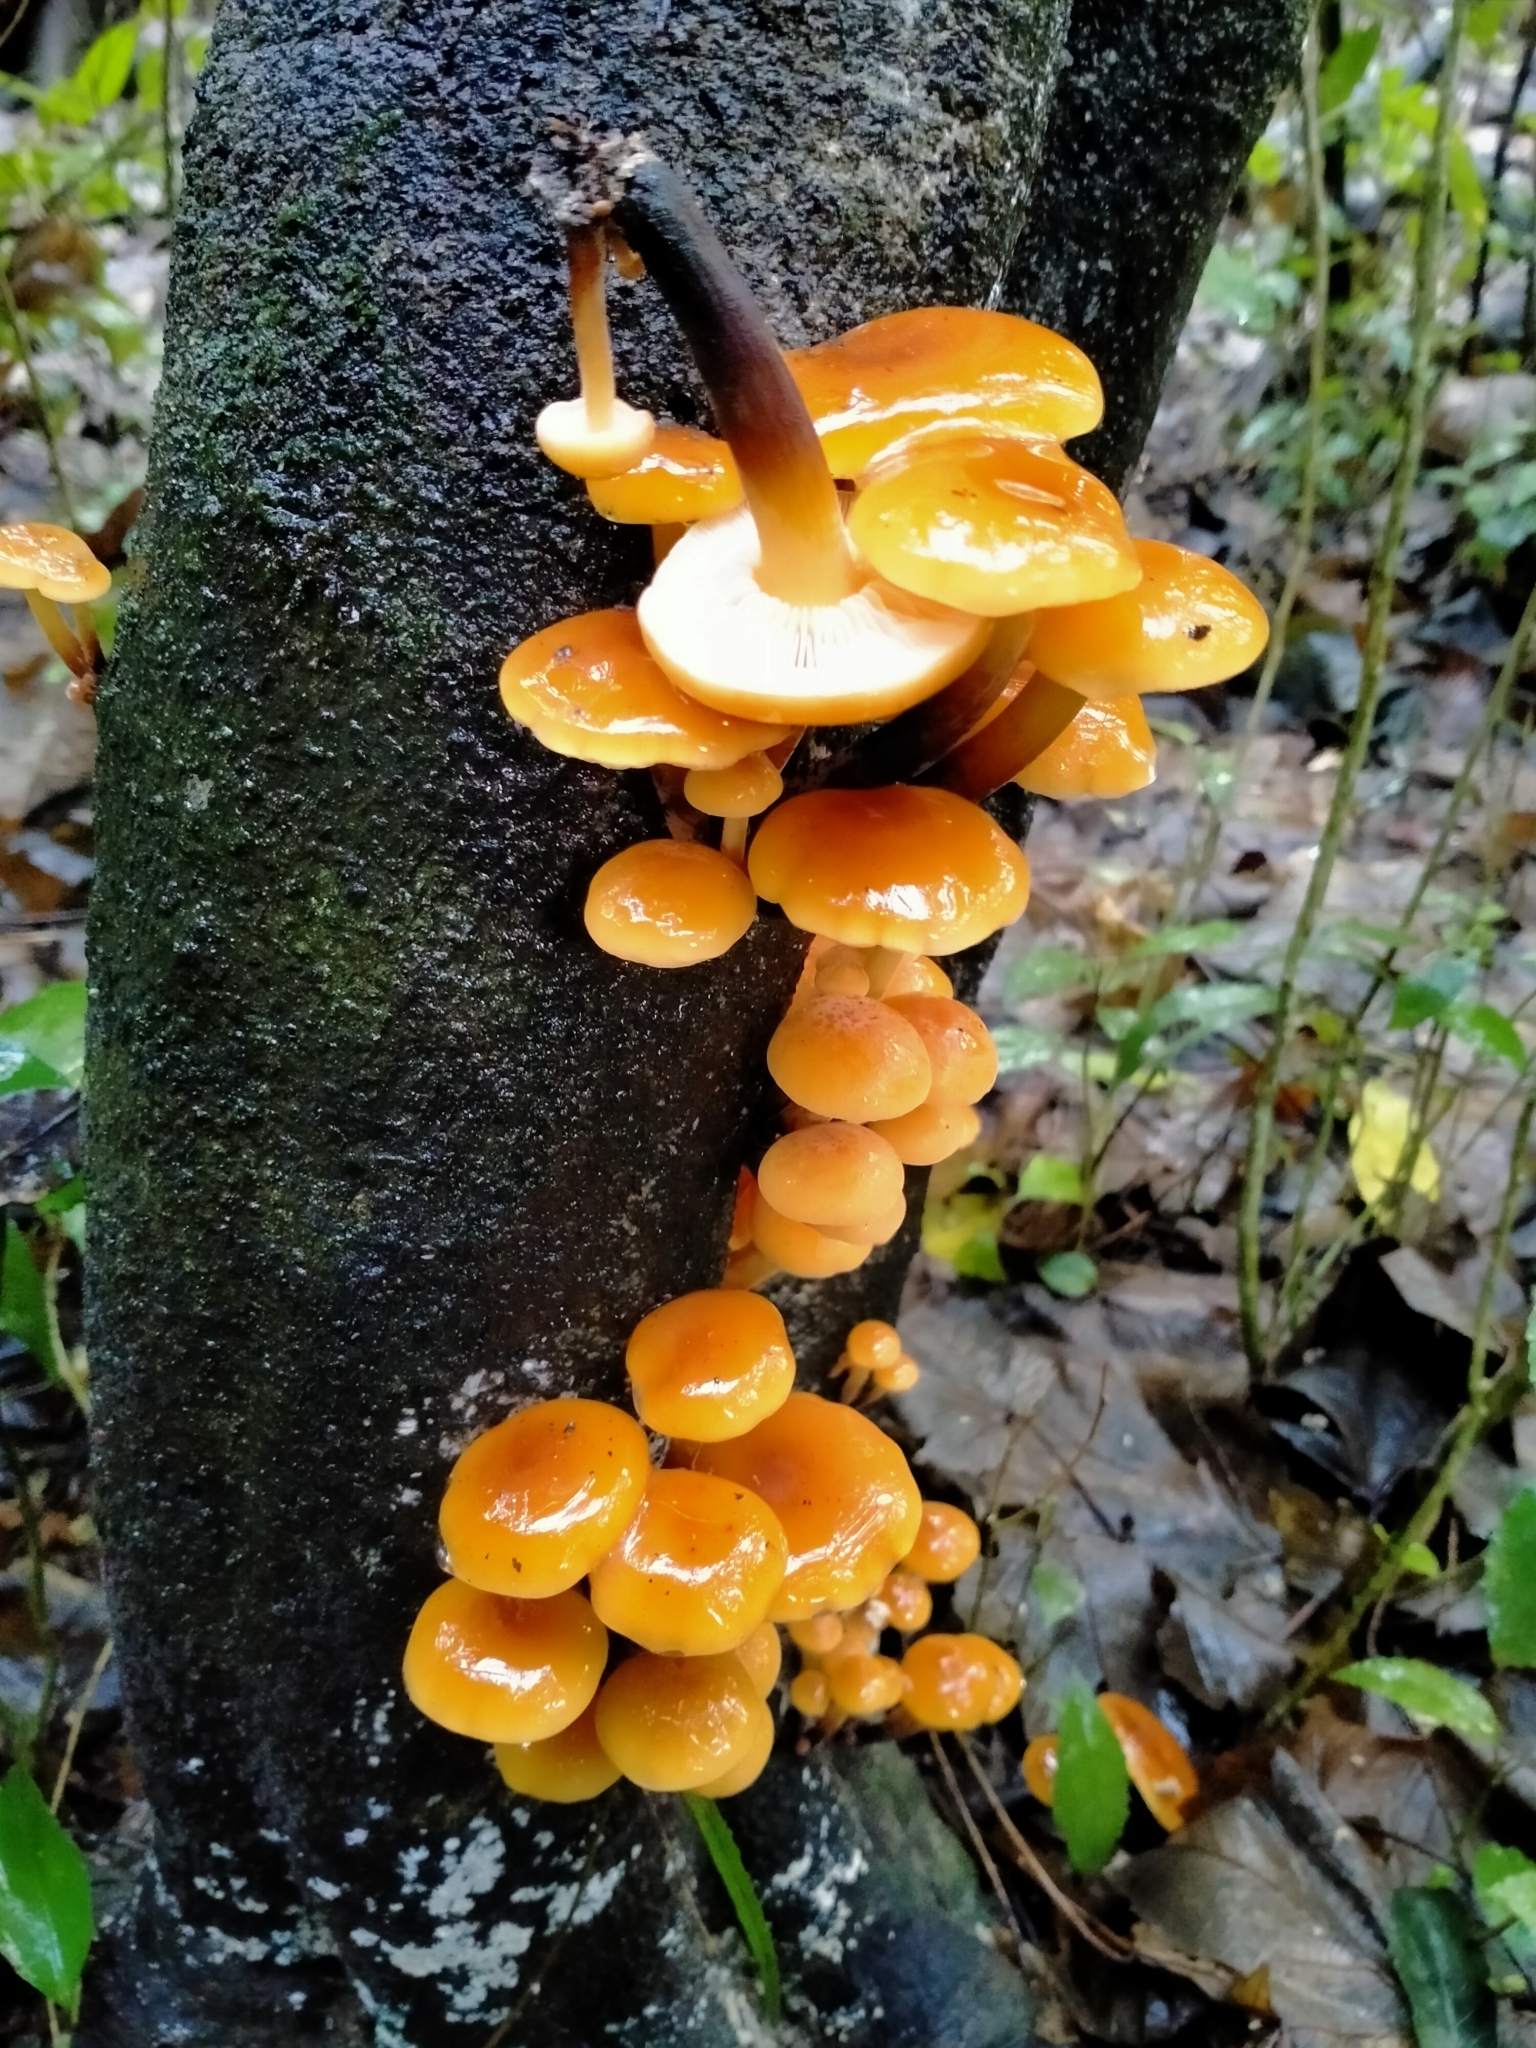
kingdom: Fungi
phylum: Basidiomycota
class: Agaricomycetes
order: Agaricales
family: Physalacriaceae
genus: Flammulina
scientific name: Flammulina velutipes
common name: Velvet shank
